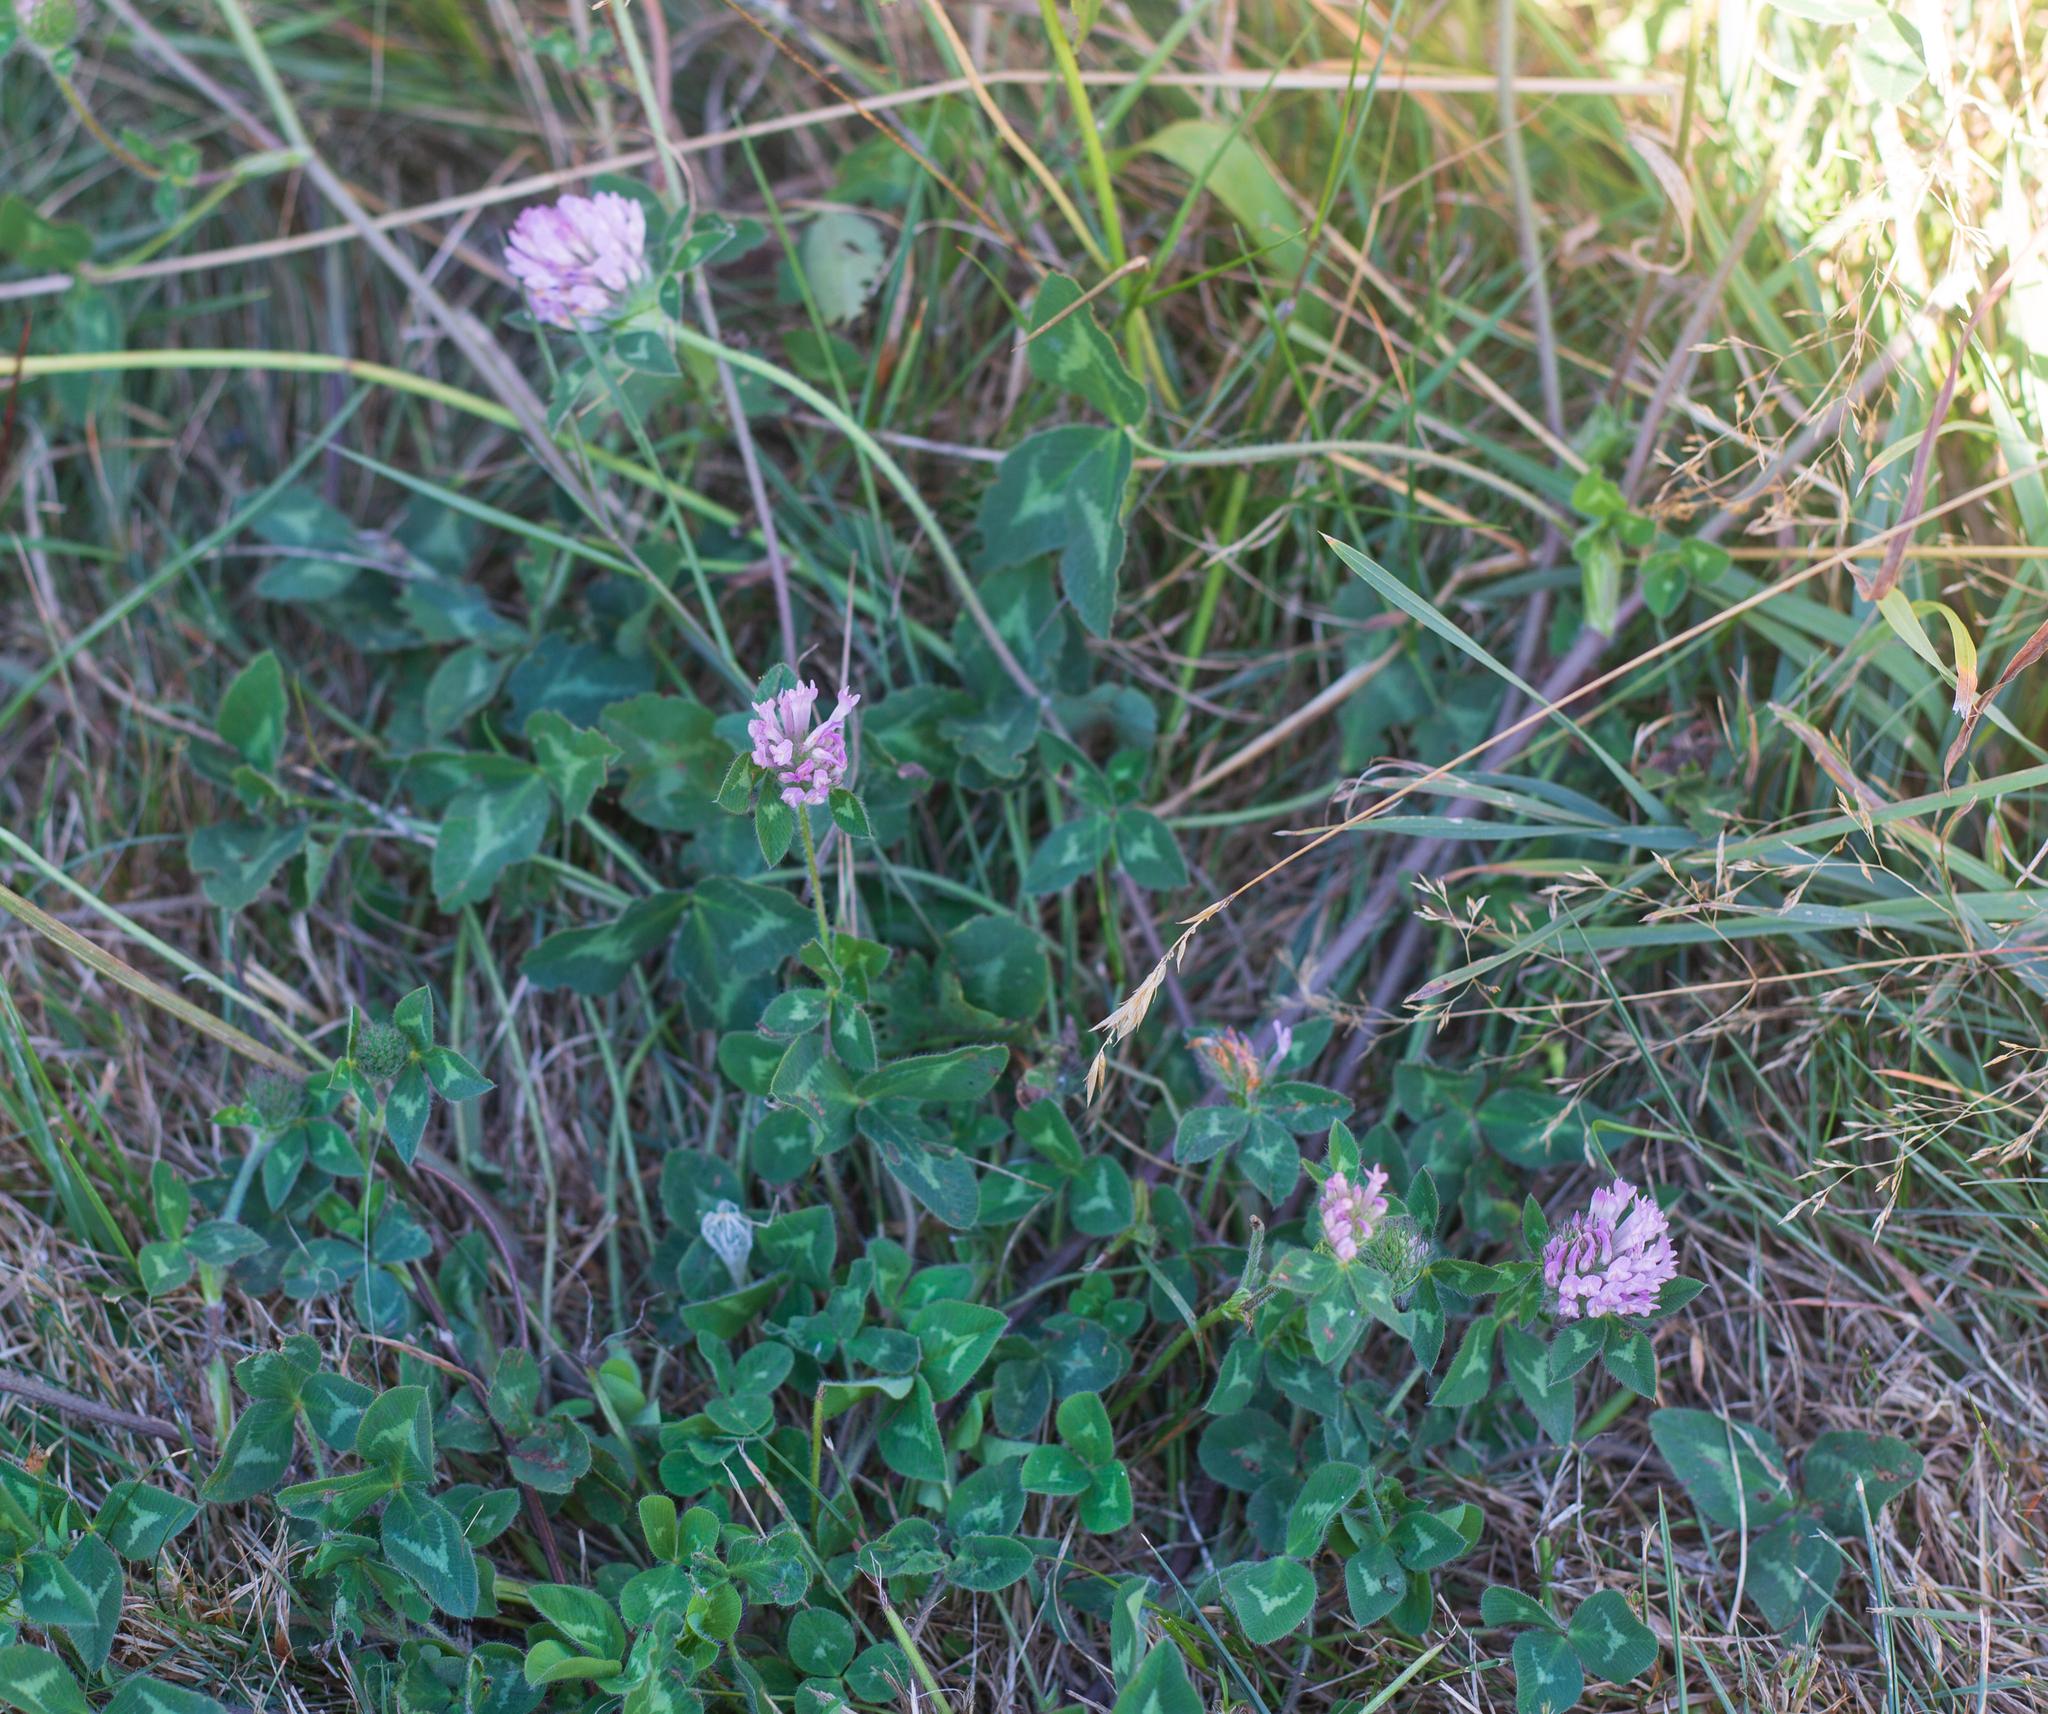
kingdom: Plantae
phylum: Tracheophyta
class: Magnoliopsida
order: Fabales
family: Fabaceae
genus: Trifolium
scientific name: Trifolium pratense
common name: Red clover
